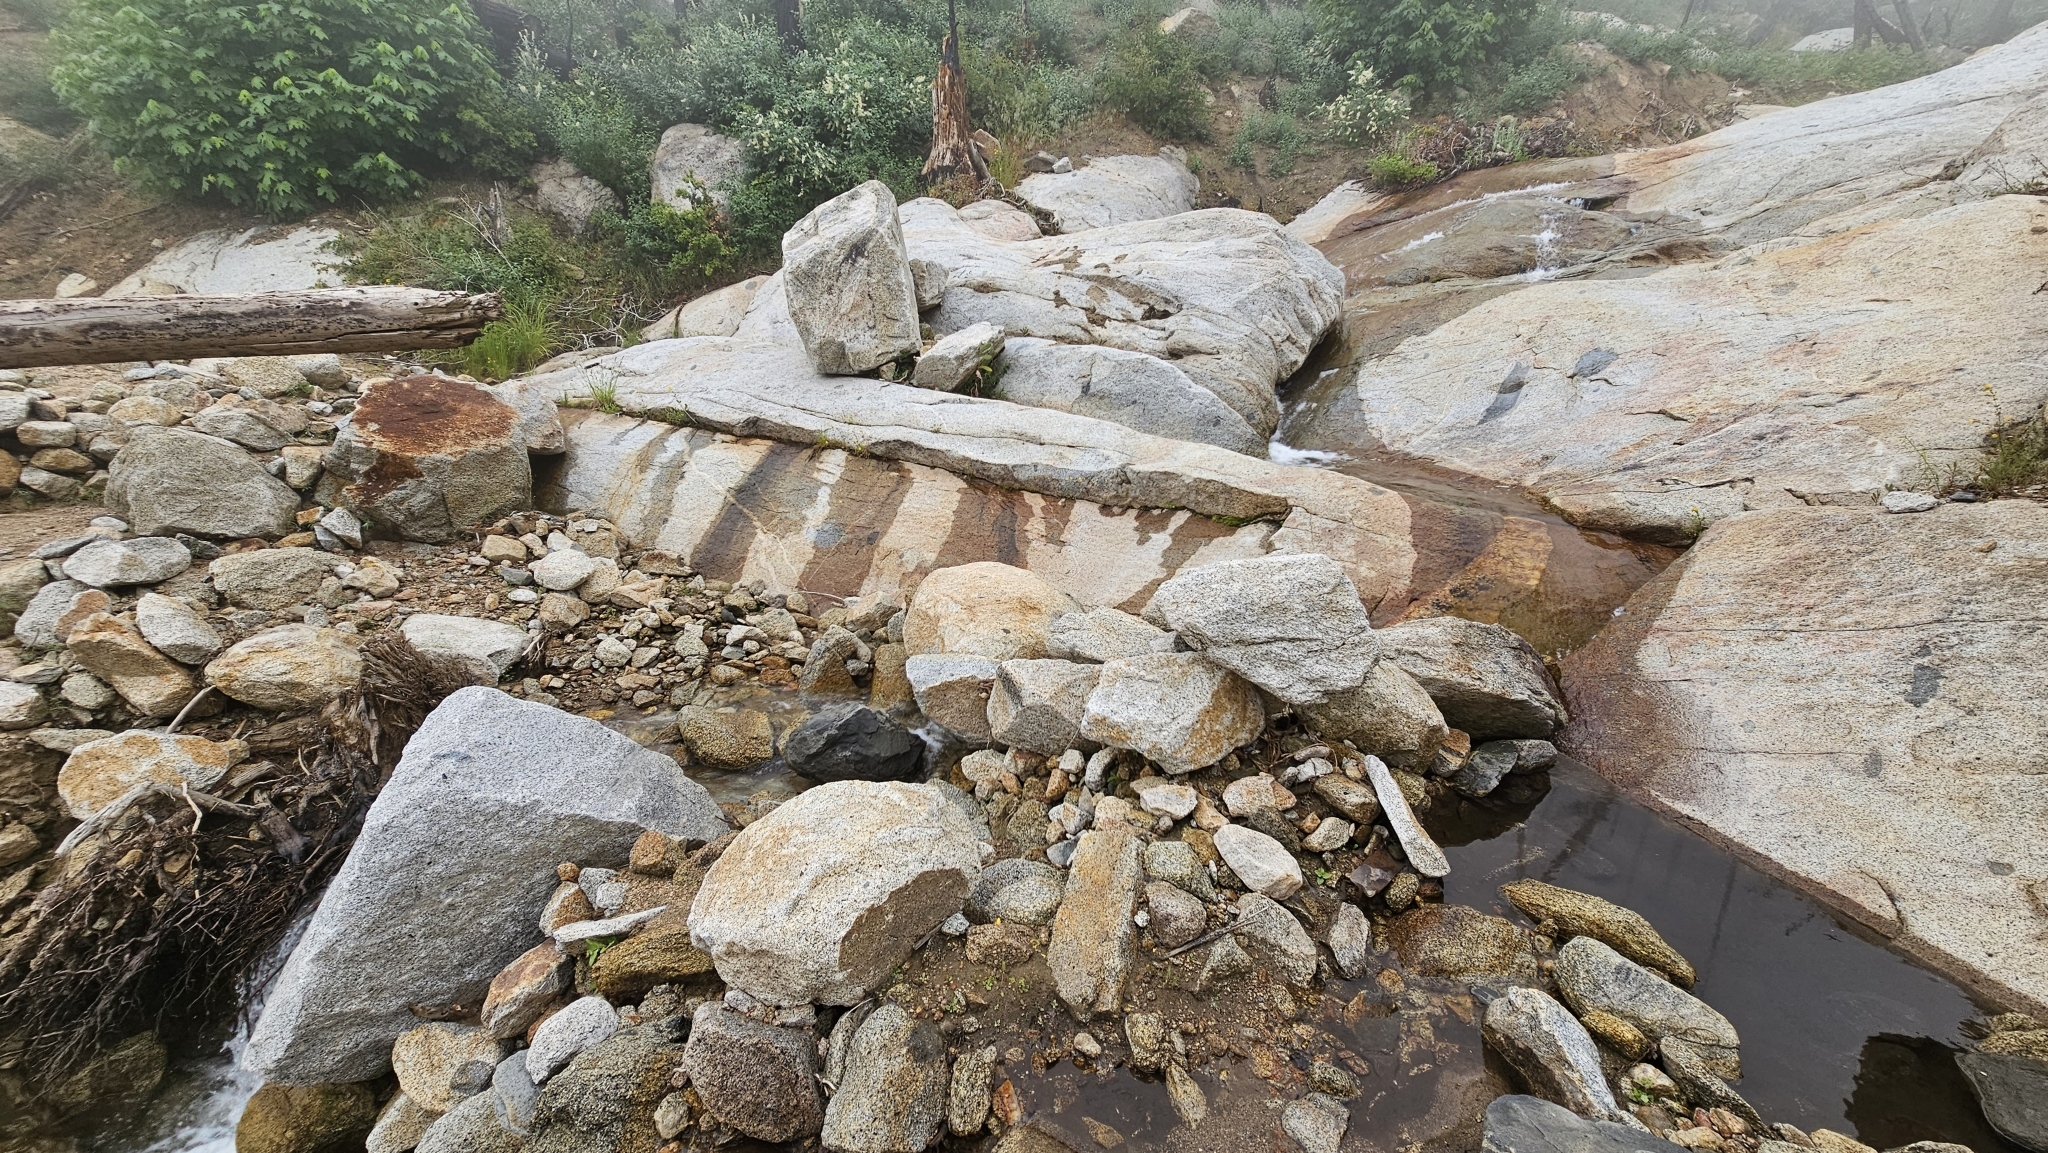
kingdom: Plantae
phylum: Tracheophyta
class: Magnoliopsida
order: Lamiales
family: Phrymaceae
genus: Erythranthe
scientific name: Erythranthe laciniata
